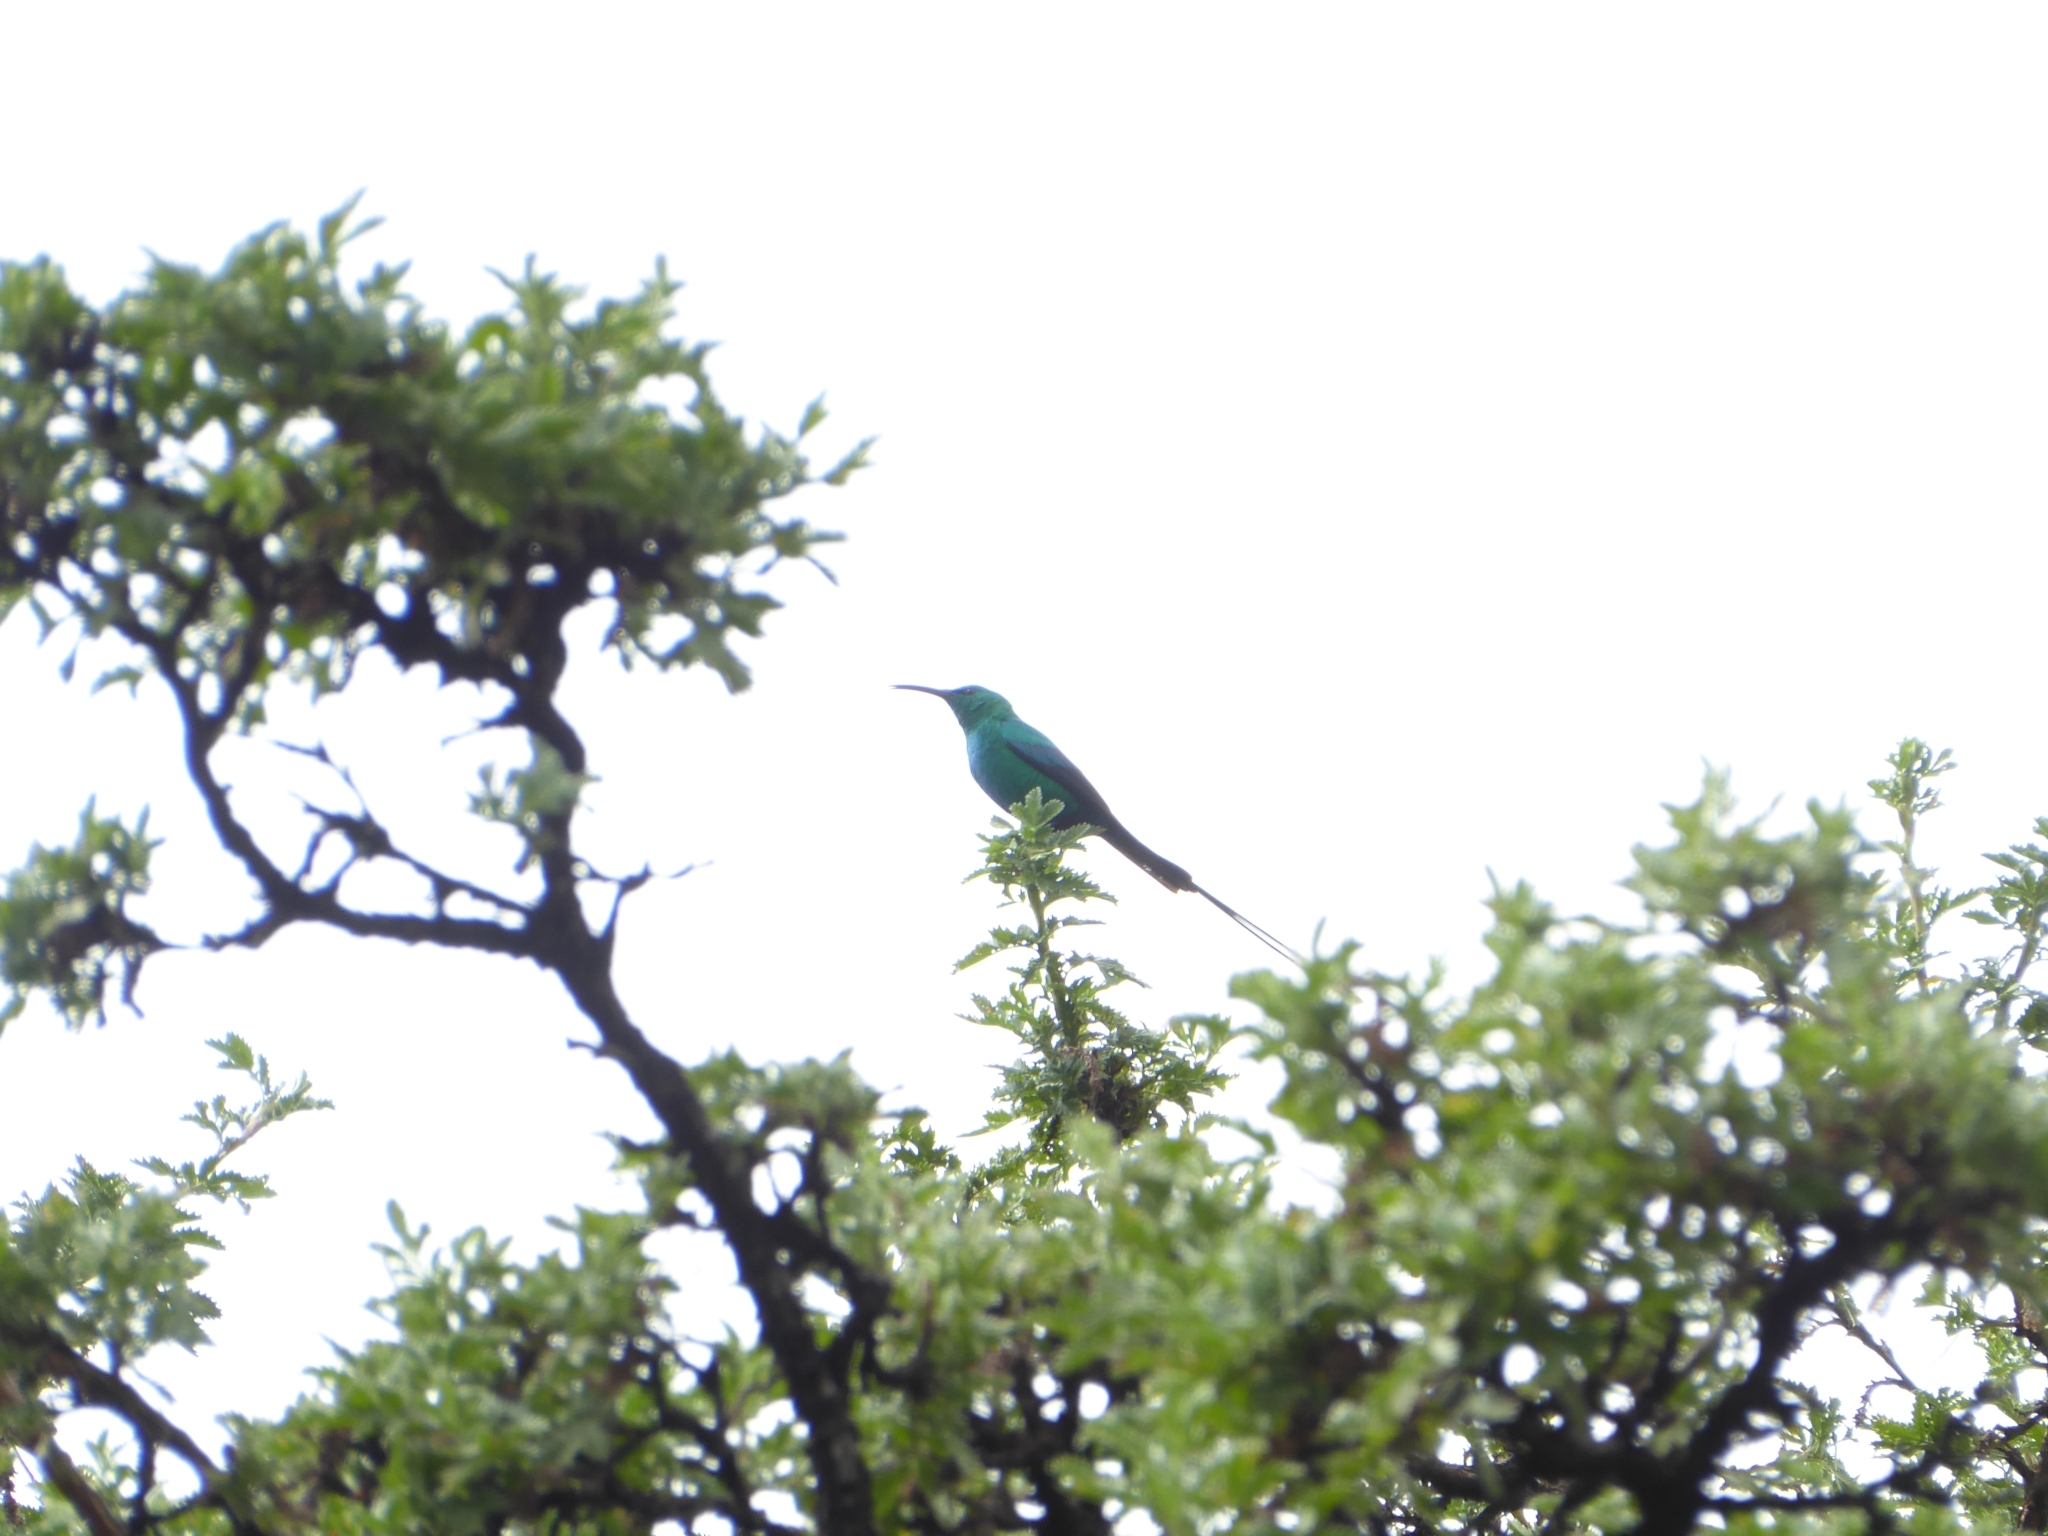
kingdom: Animalia
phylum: Chordata
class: Aves
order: Passeriformes
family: Nectariniidae
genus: Nectarinia
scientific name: Nectarinia famosa
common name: Malachite sunbird
